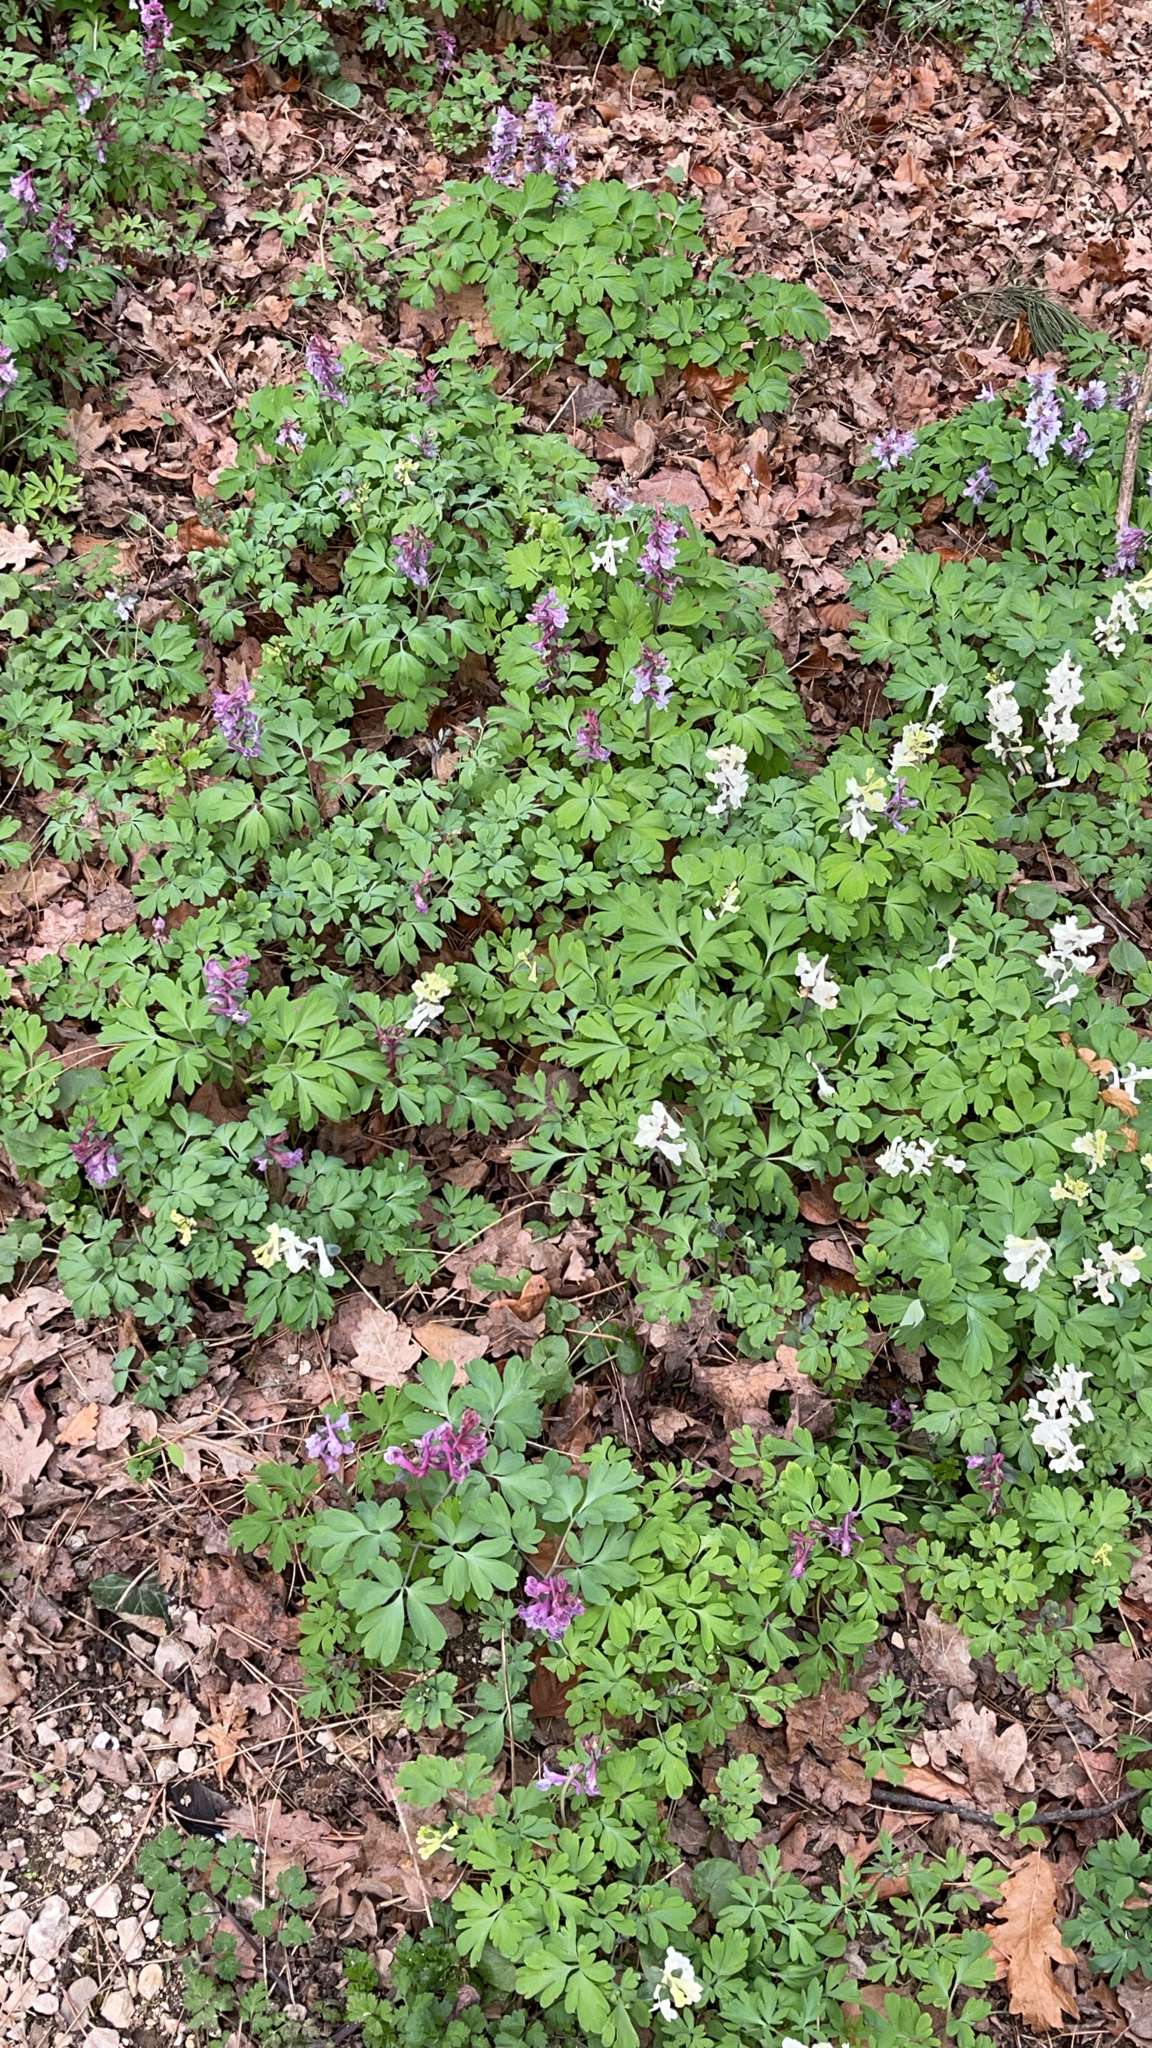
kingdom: Plantae
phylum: Tracheophyta
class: Magnoliopsida
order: Ranunculales
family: Papaveraceae
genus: Corydalis
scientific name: Corydalis cava
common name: Hollowroot
